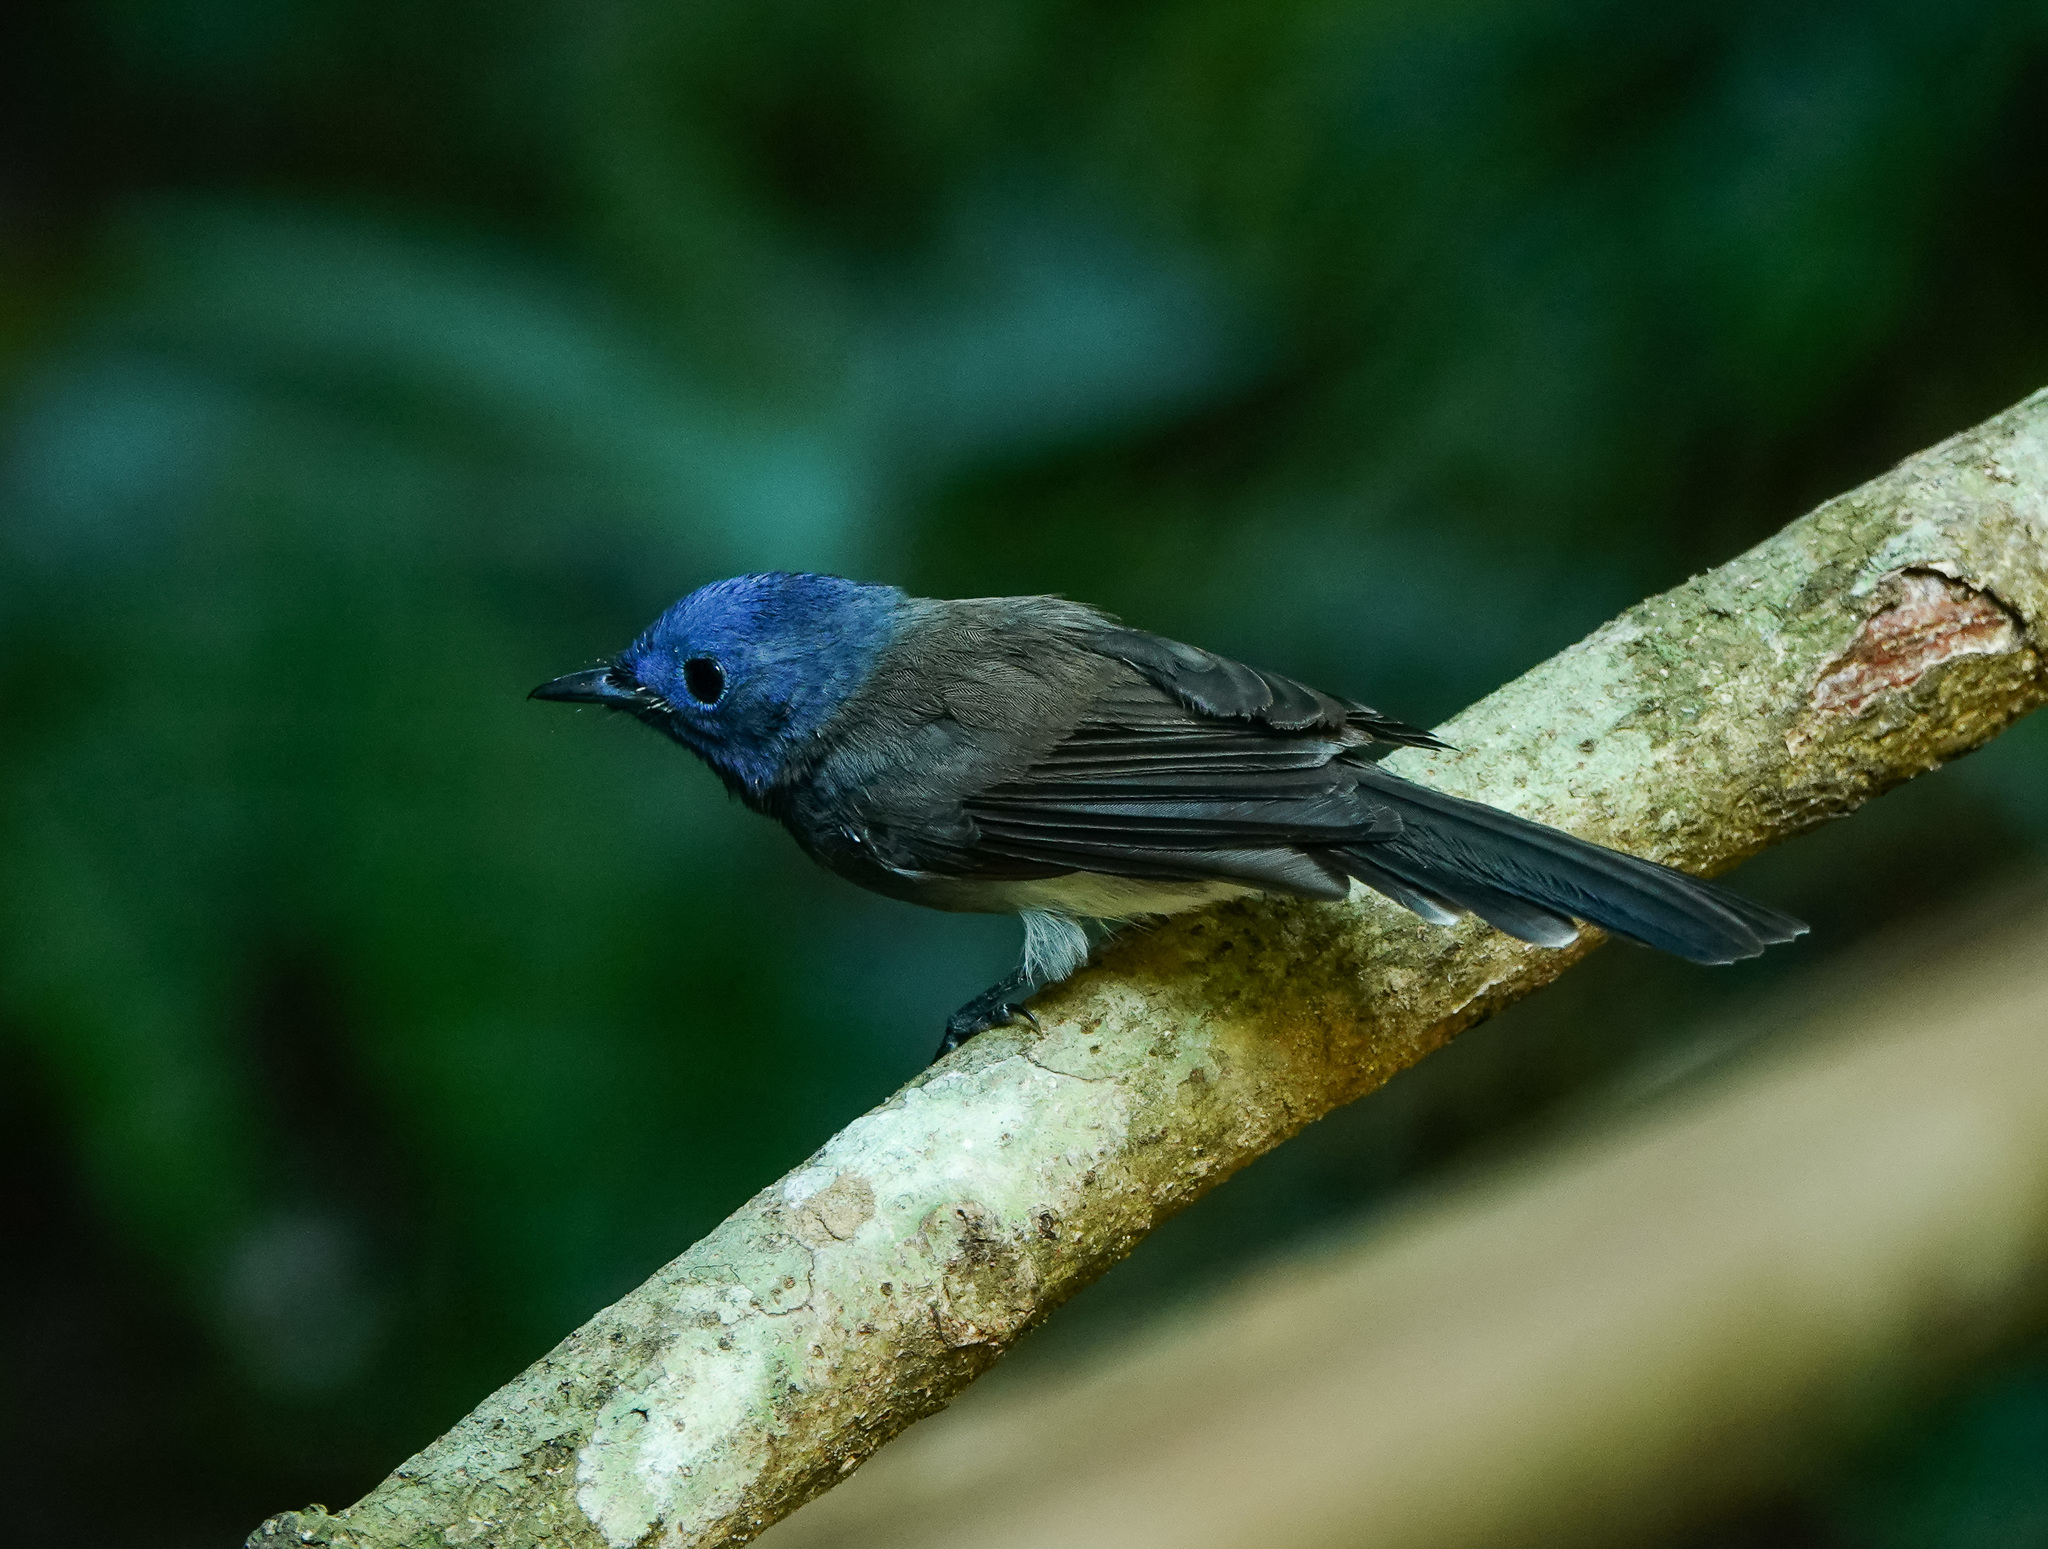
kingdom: Animalia
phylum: Chordata
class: Aves
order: Passeriformes
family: Monarchidae
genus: Hypothymis
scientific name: Hypothymis azurea
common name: Black-naped monarch
